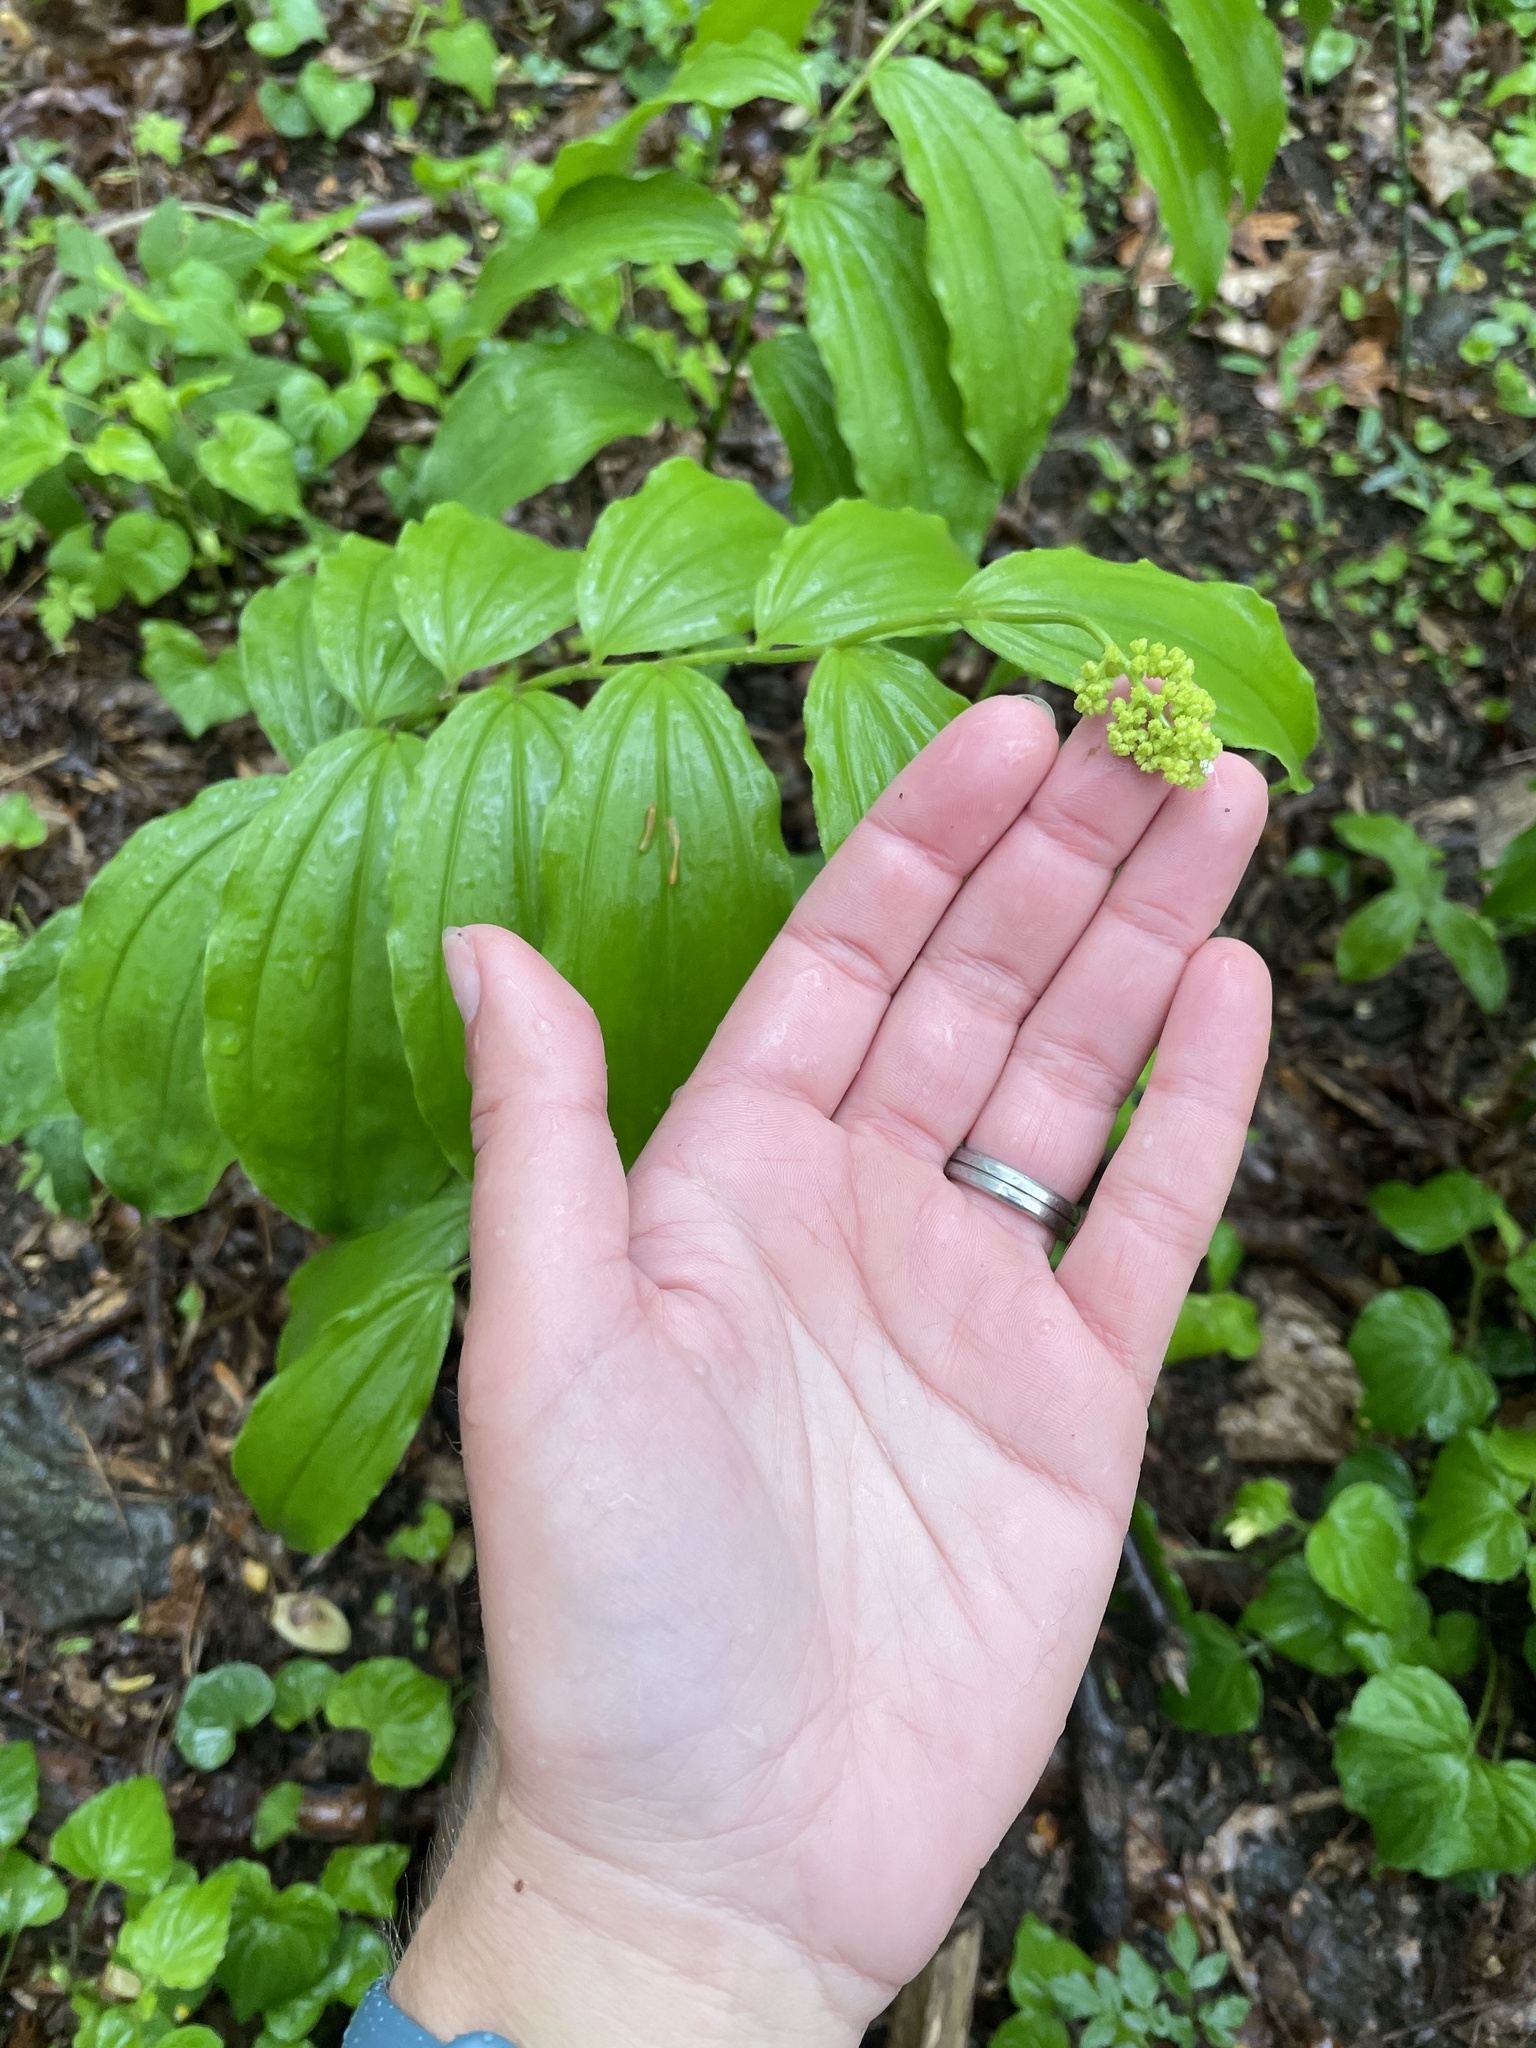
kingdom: Plantae
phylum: Tracheophyta
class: Liliopsida
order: Asparagales
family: Asparagaceae
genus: Maianthemum
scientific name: Maianthemum racemosum
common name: False spikenard
